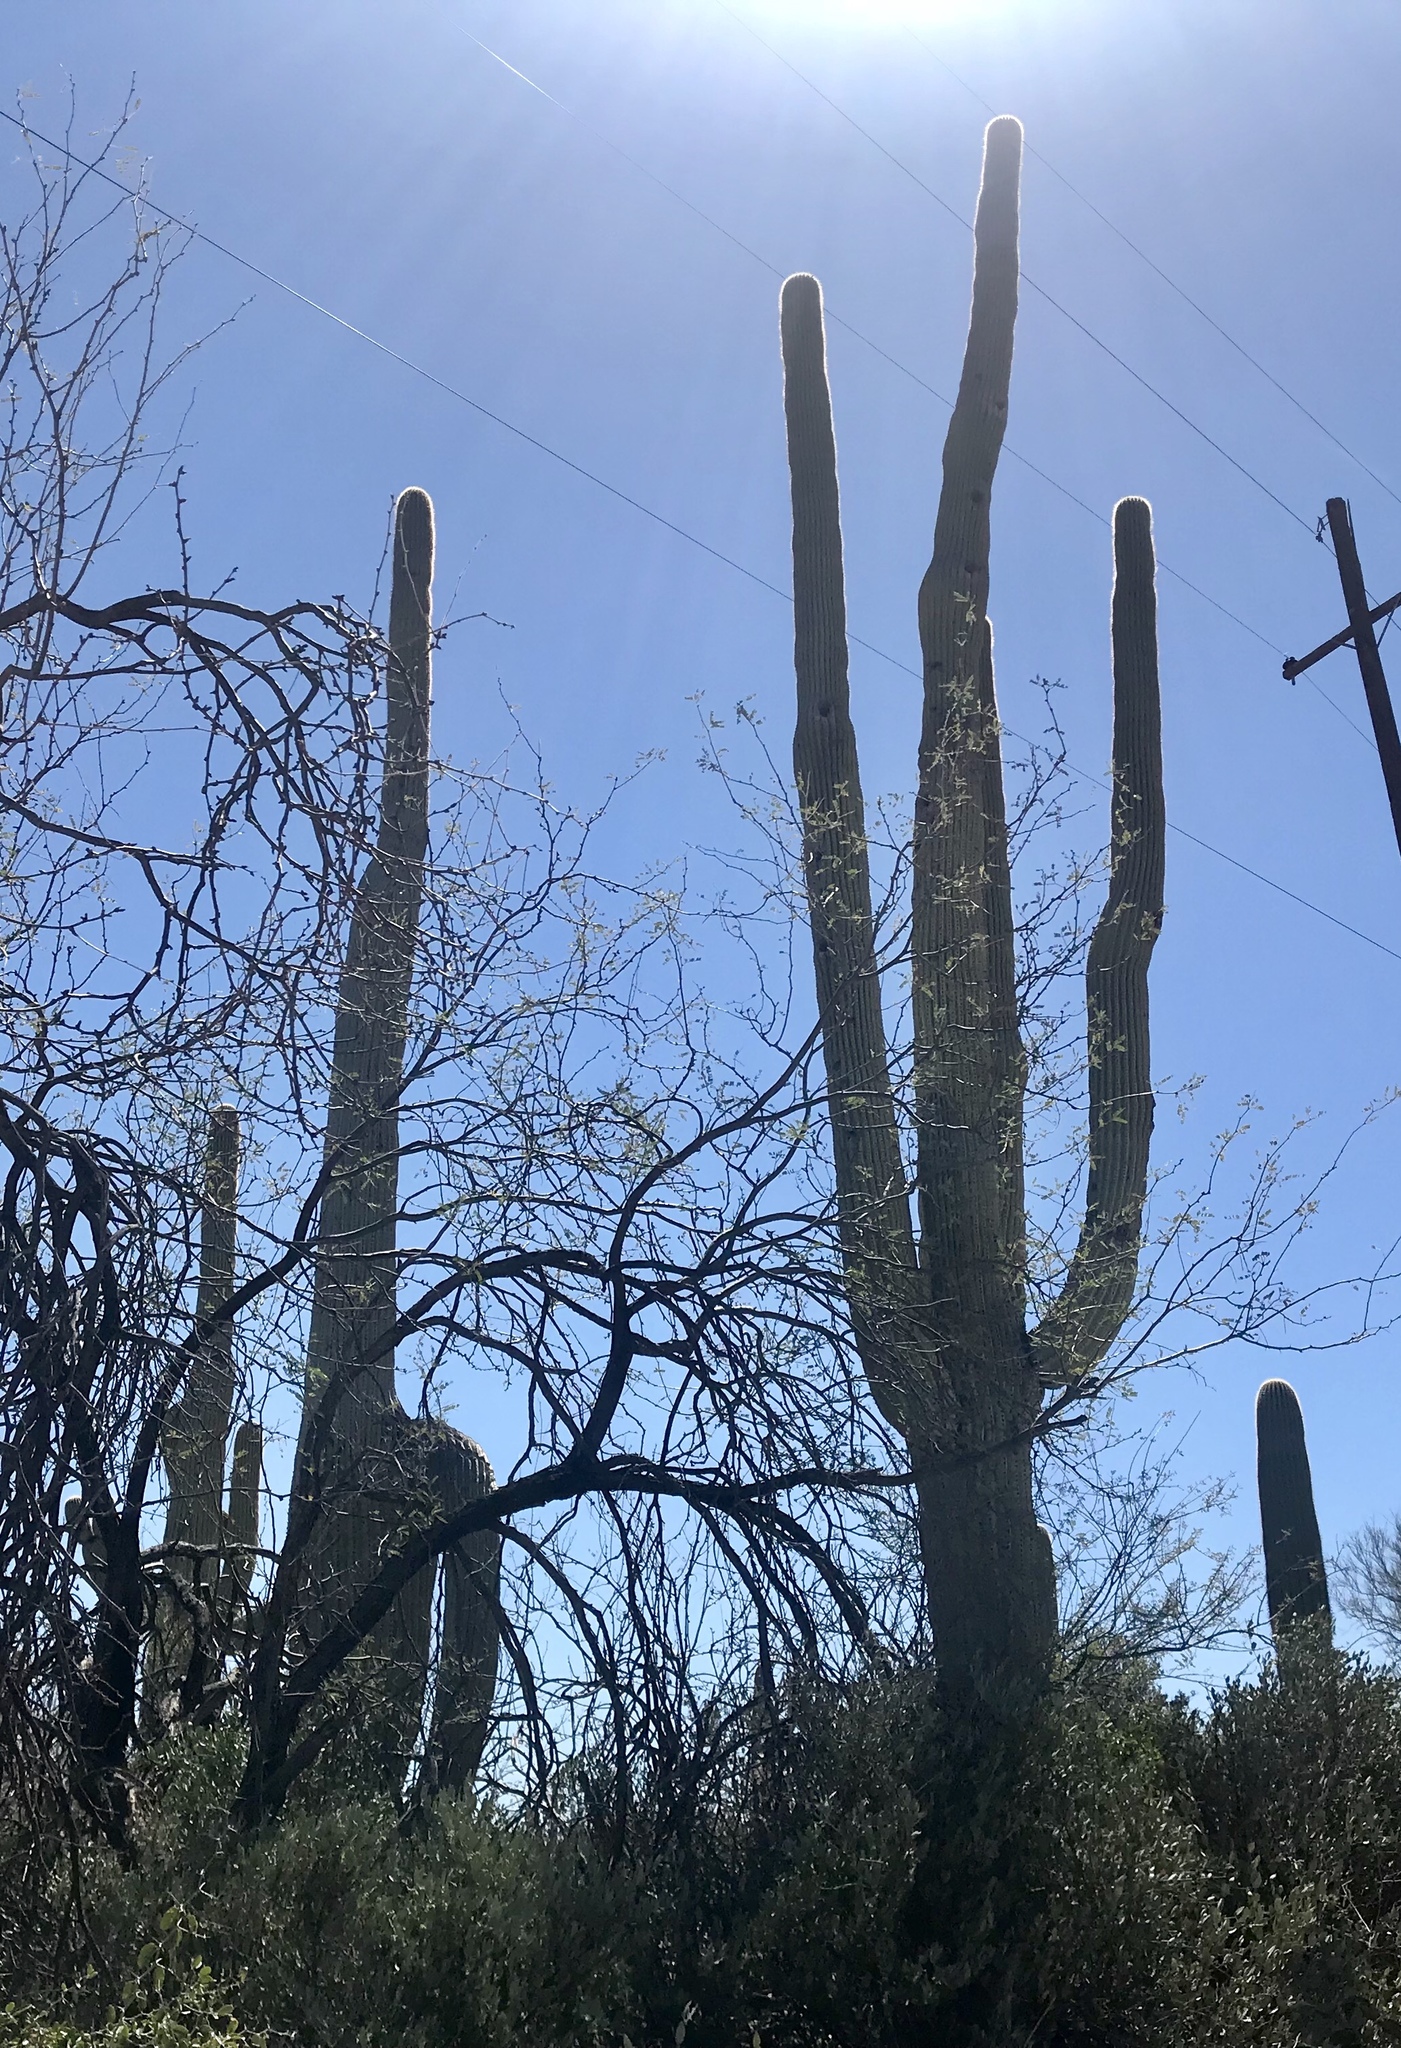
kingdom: Plantae
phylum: Tracheophyta
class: Magnoliopsida
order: Caryophyllales
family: Cactaceae
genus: Carnegiea
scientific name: Carnegiea gigantea
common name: Saguaro
